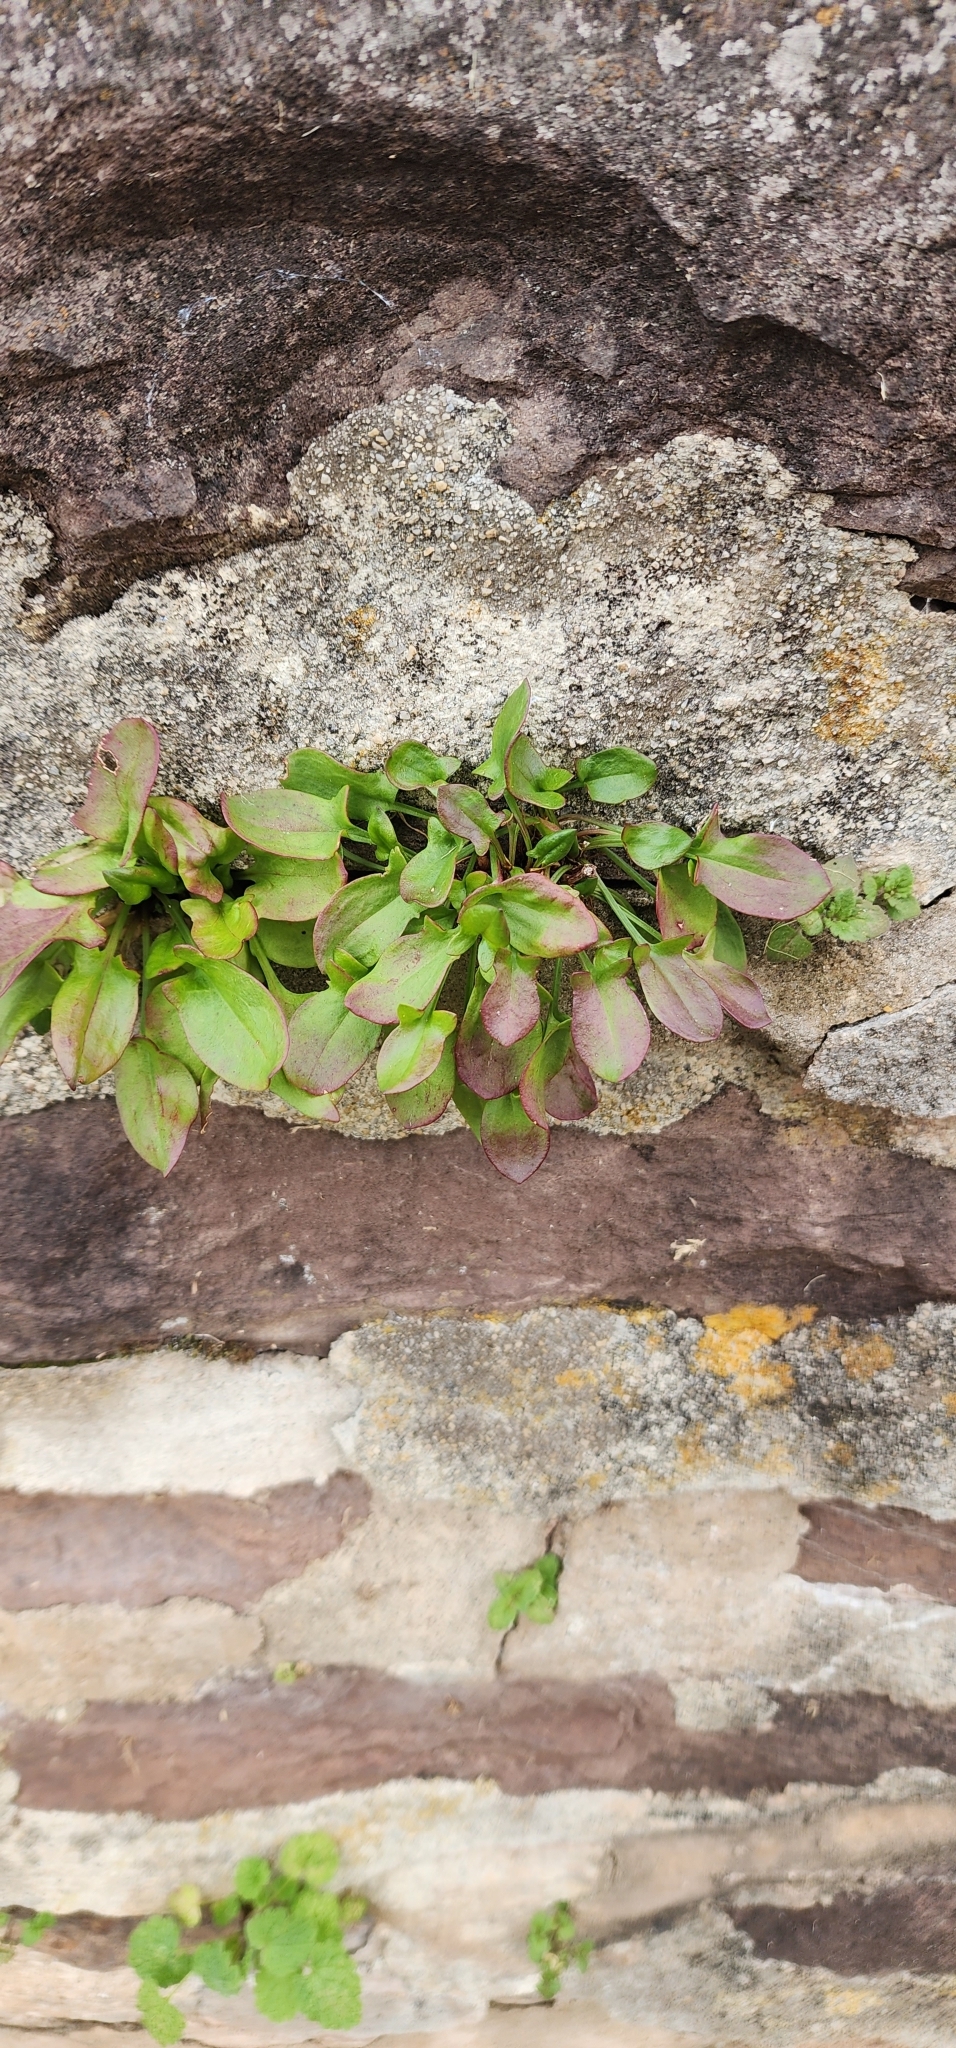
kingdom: Plantae
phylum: Tracheophyta
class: Magnoliopsida
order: Caryophyllales
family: Polygonaceae
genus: Rumex
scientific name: Rumex acetosella
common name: Common sheep sorrel
